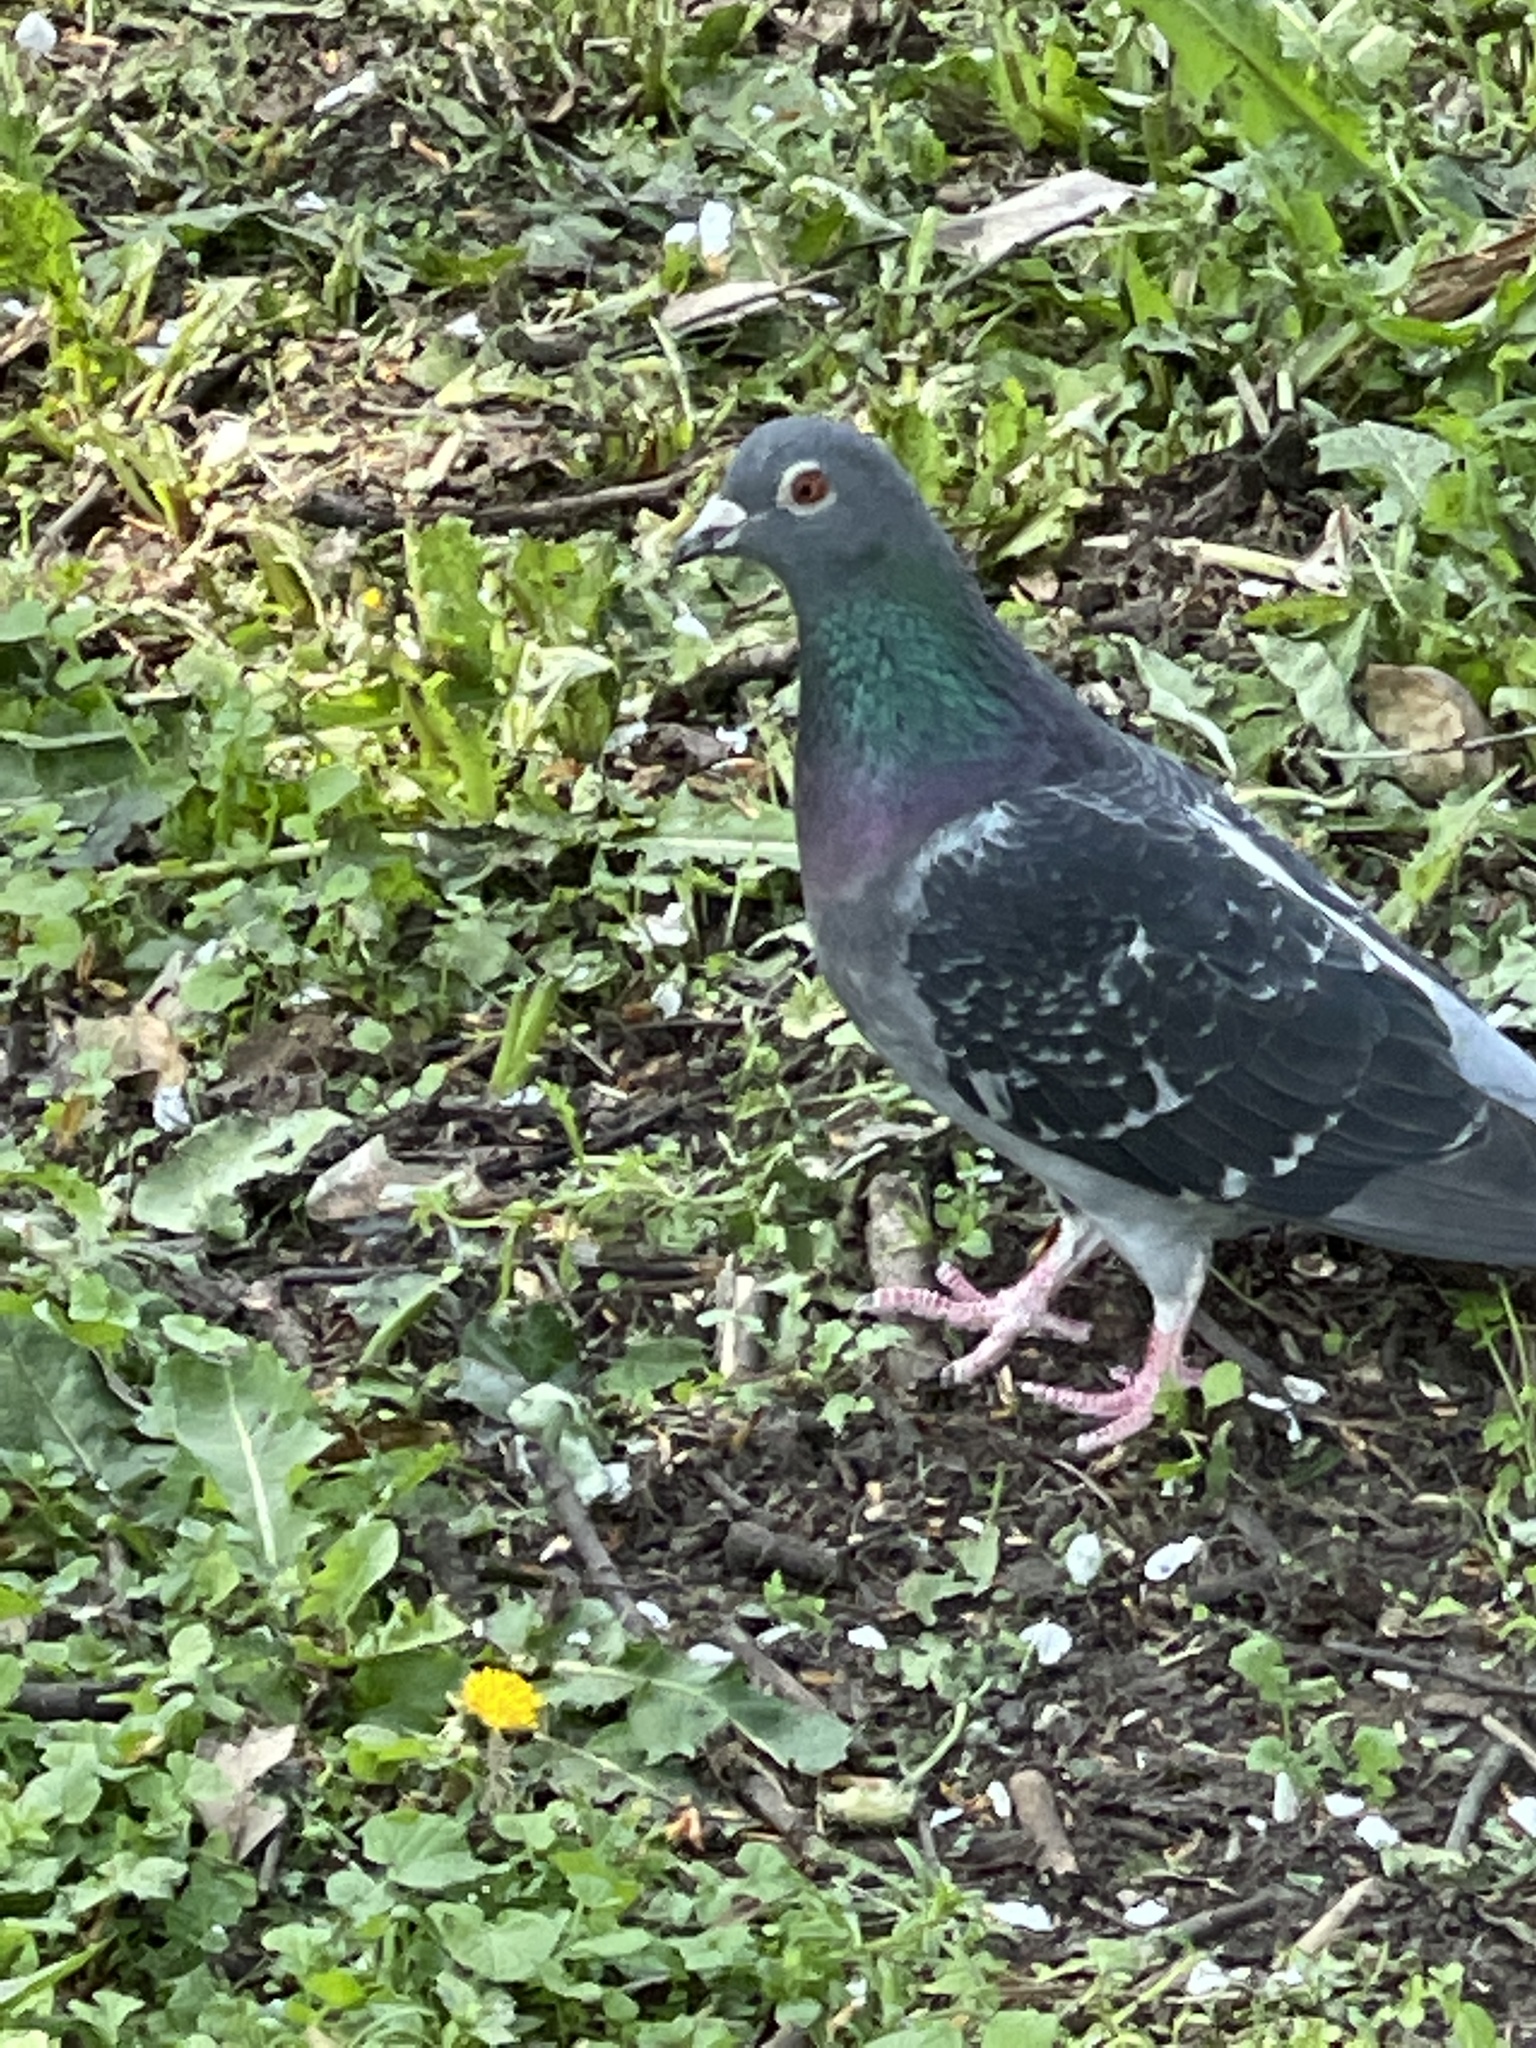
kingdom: Animalia
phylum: Chordata
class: Aves
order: Columbiformes
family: Columbidae
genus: Columba
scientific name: Columba livia
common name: Rock pigeon
